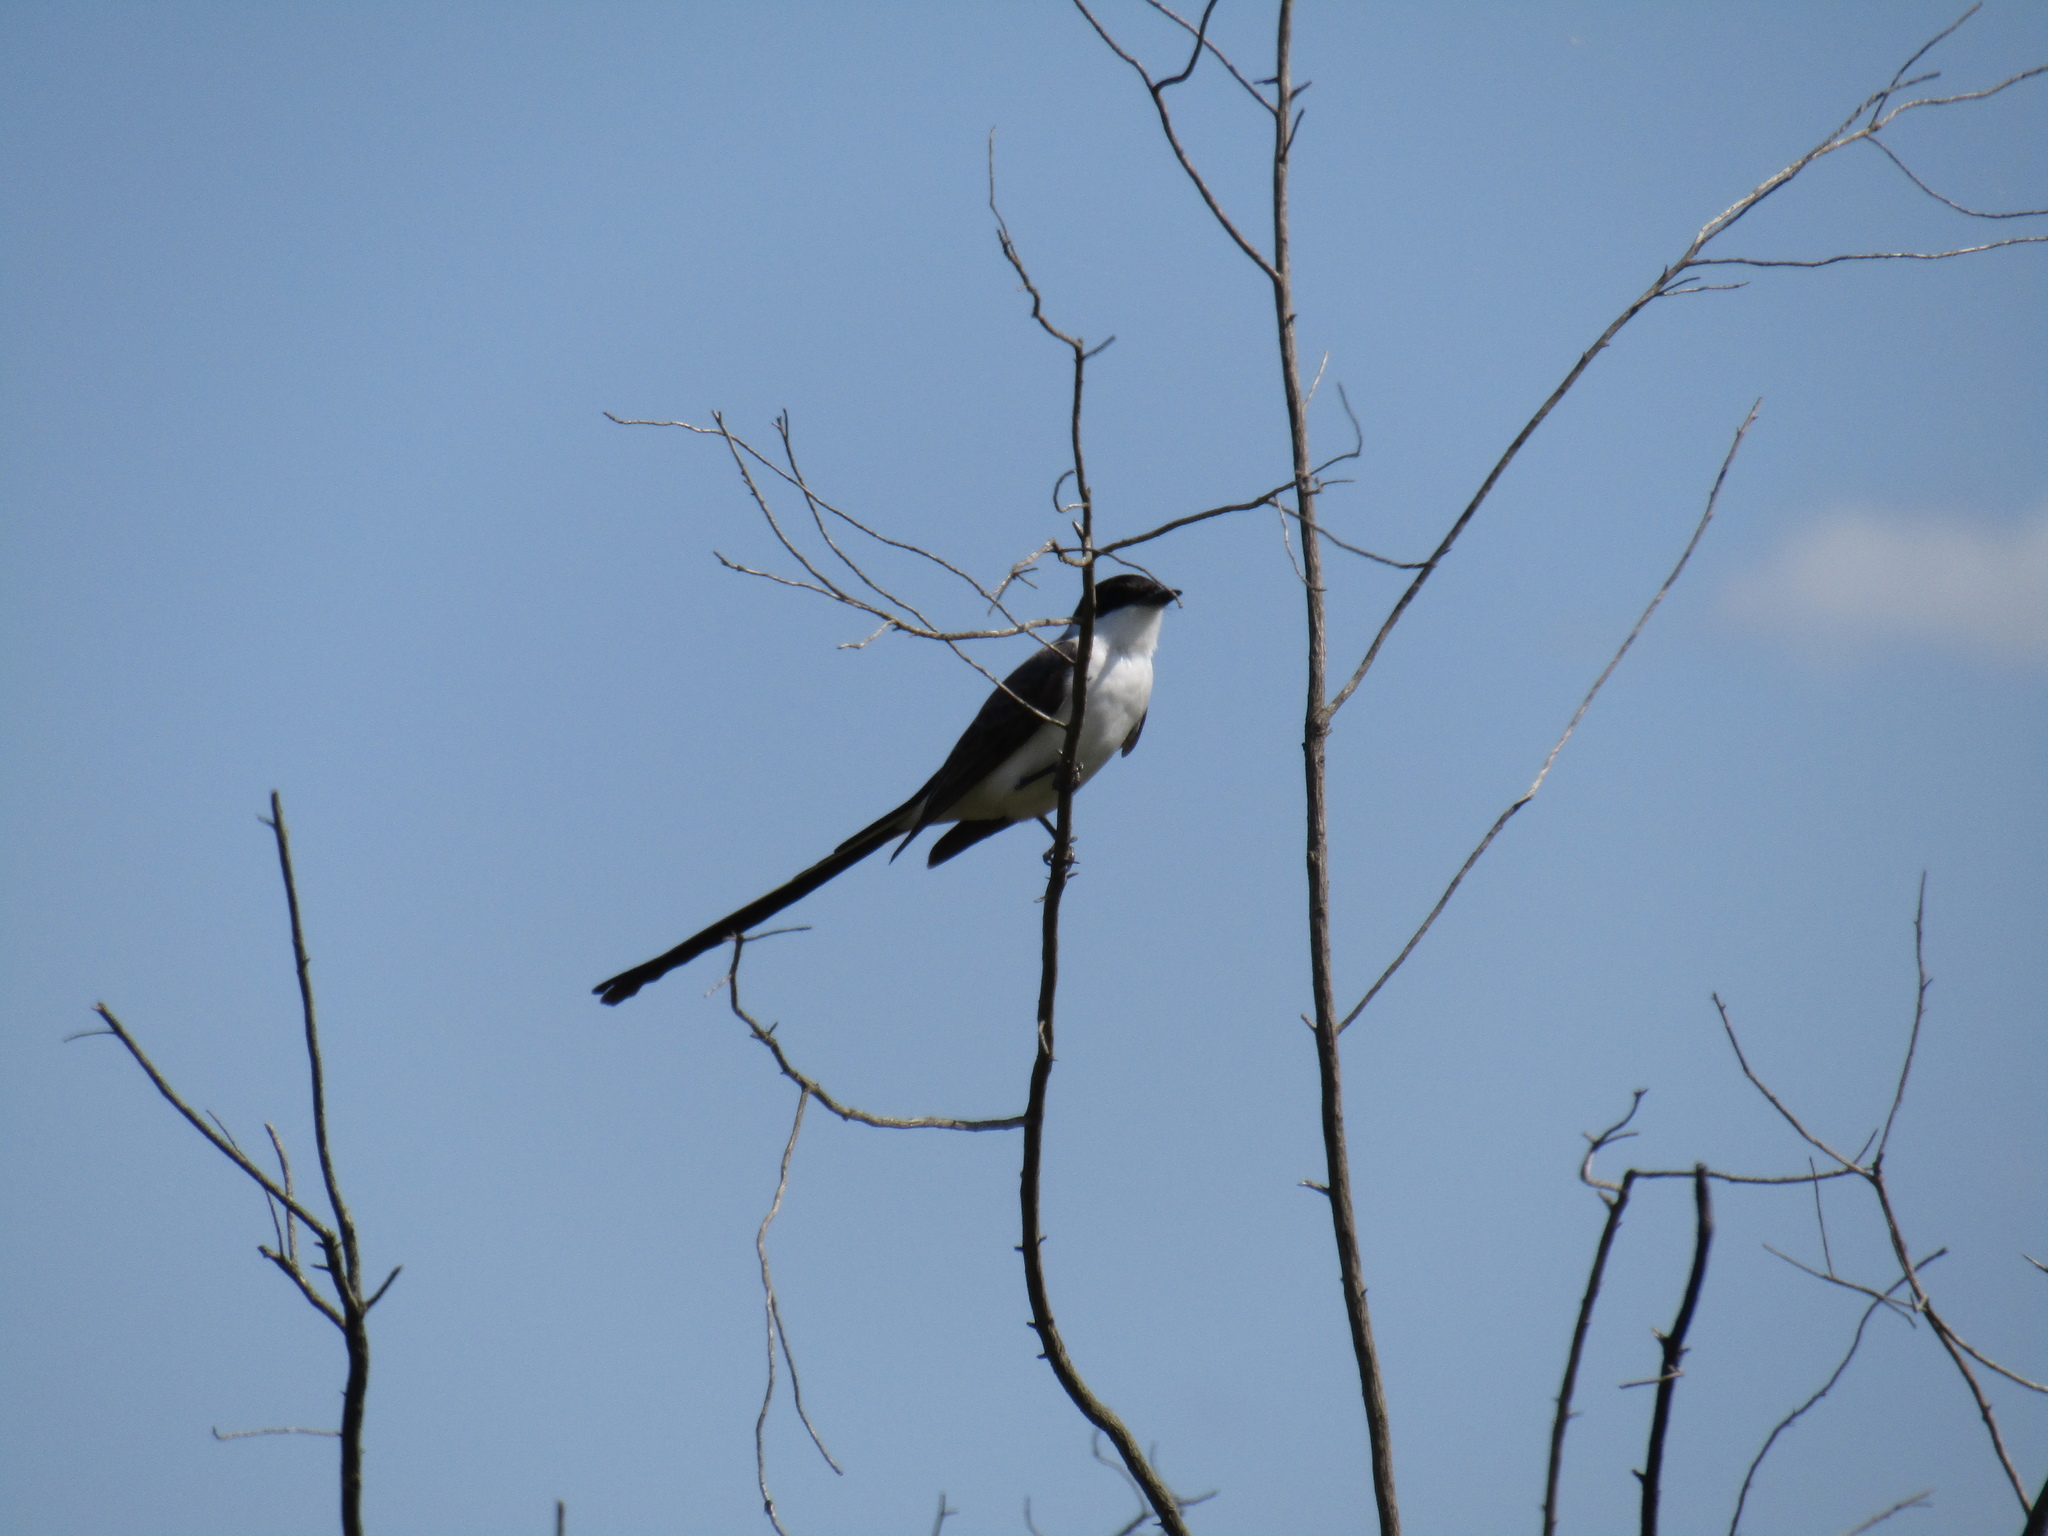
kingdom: Animalia
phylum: Chordata
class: Aves
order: Passeriformes
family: Tyrannidae
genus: Tyrannus
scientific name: Tyrannus savana
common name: Fork-tailed flycatcher
